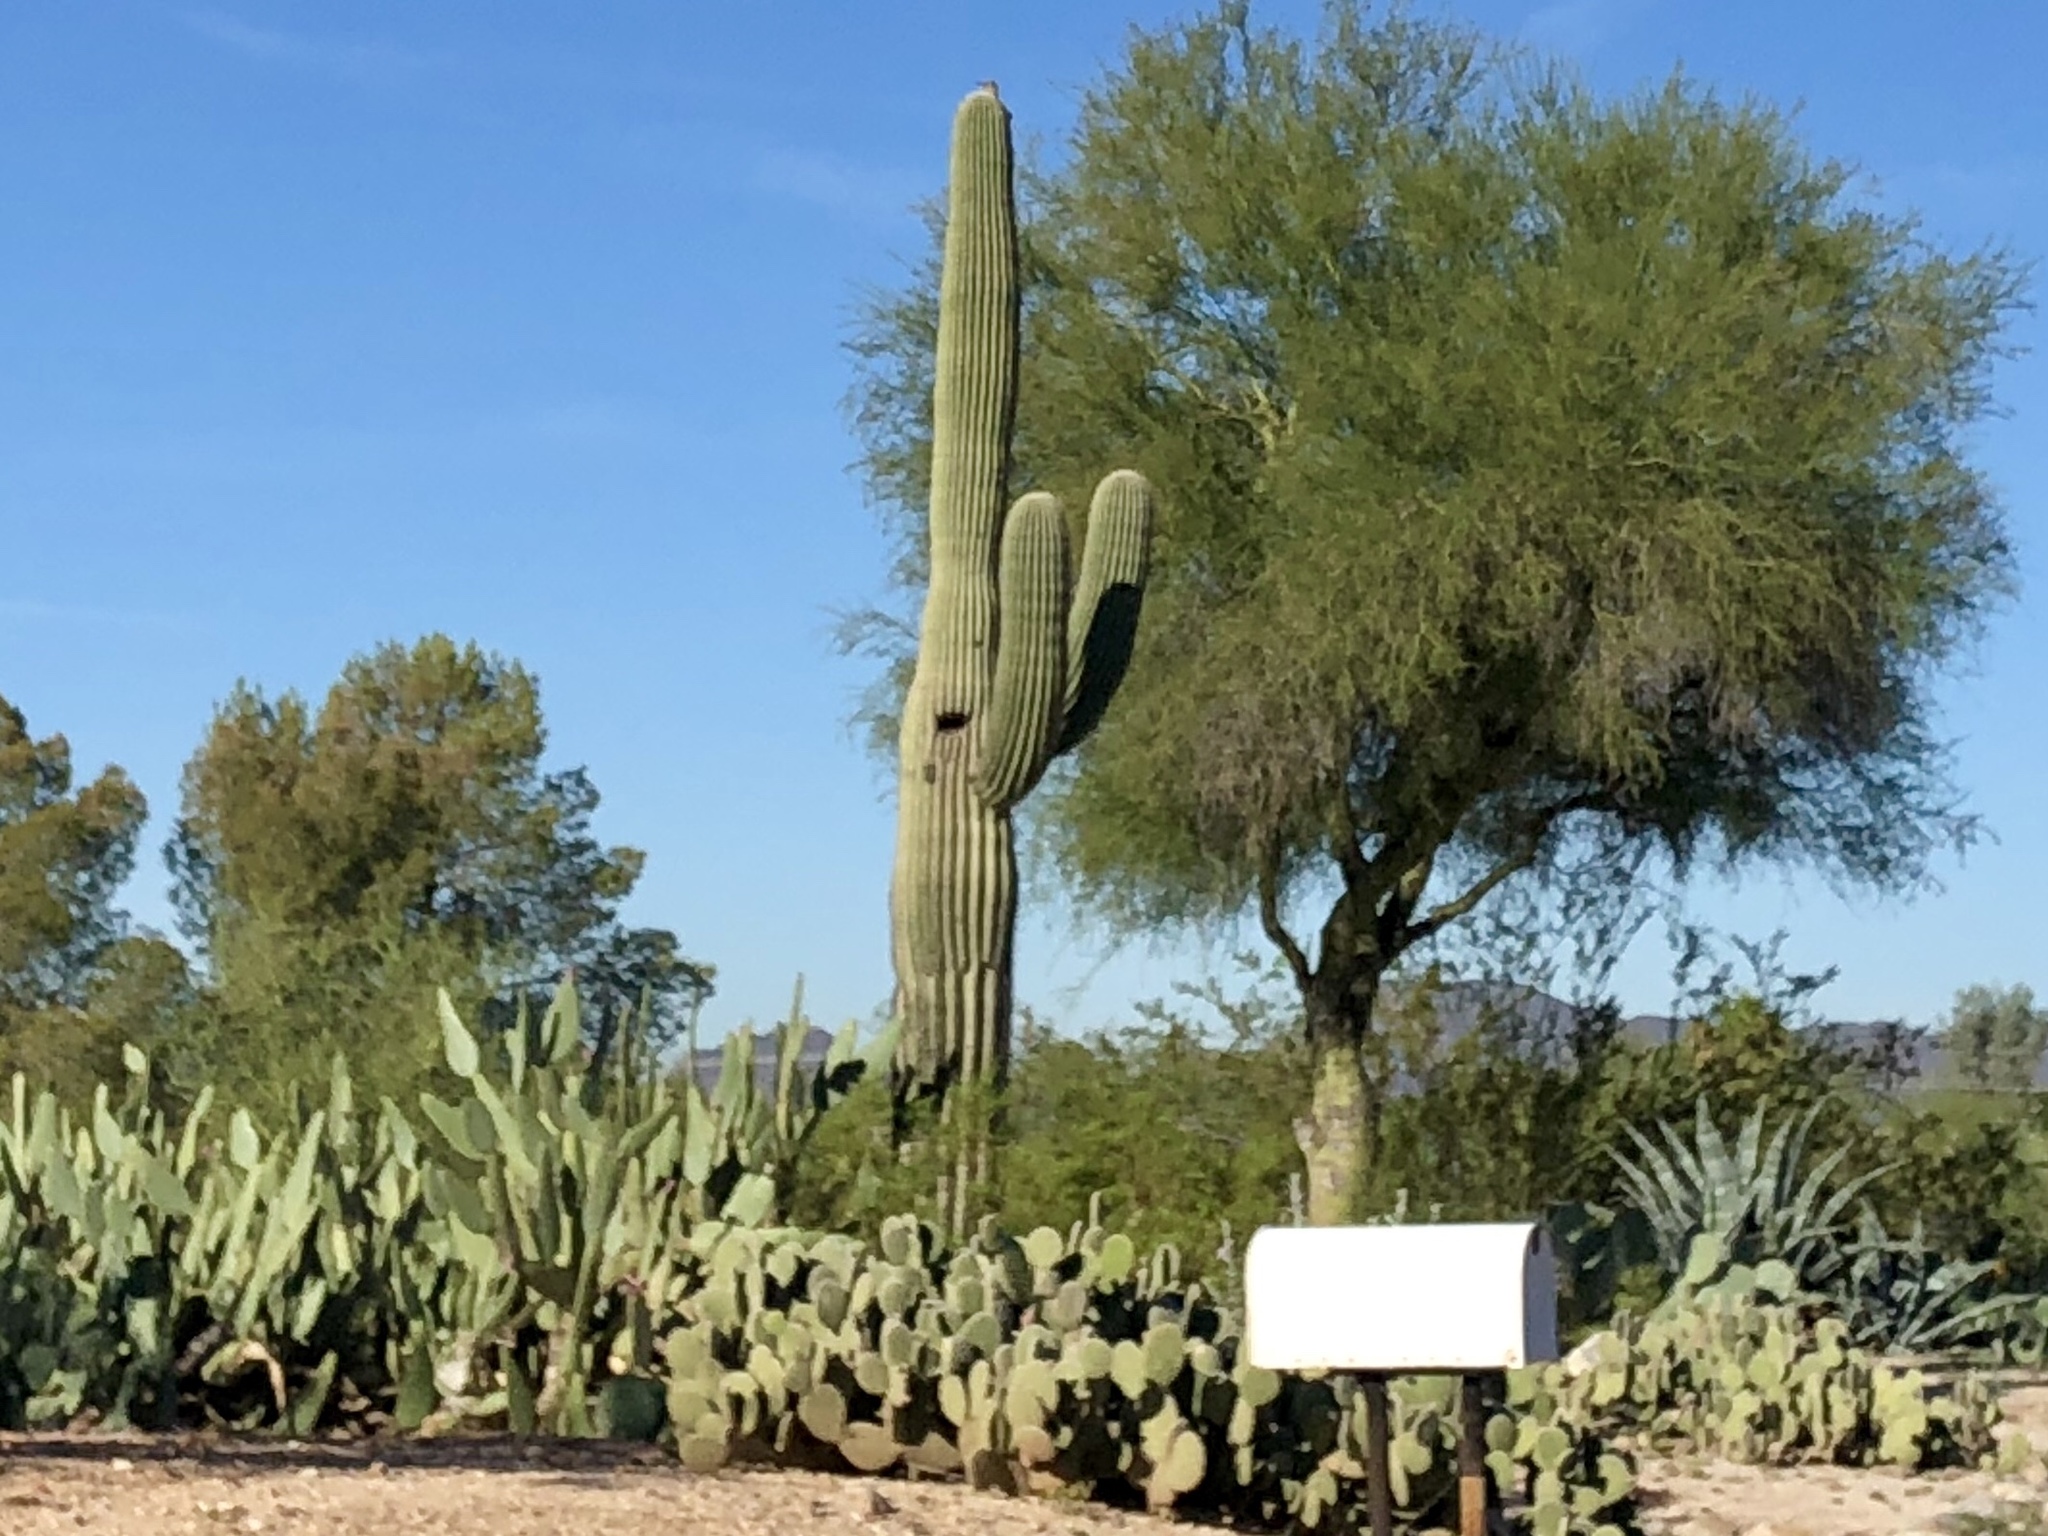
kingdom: Plantae
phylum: Tracheophyta
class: Magnoliopsida
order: Caryophyllales
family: Cactaceae
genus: Carnegiea
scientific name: Carnegiea gigantea
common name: Saguaro
